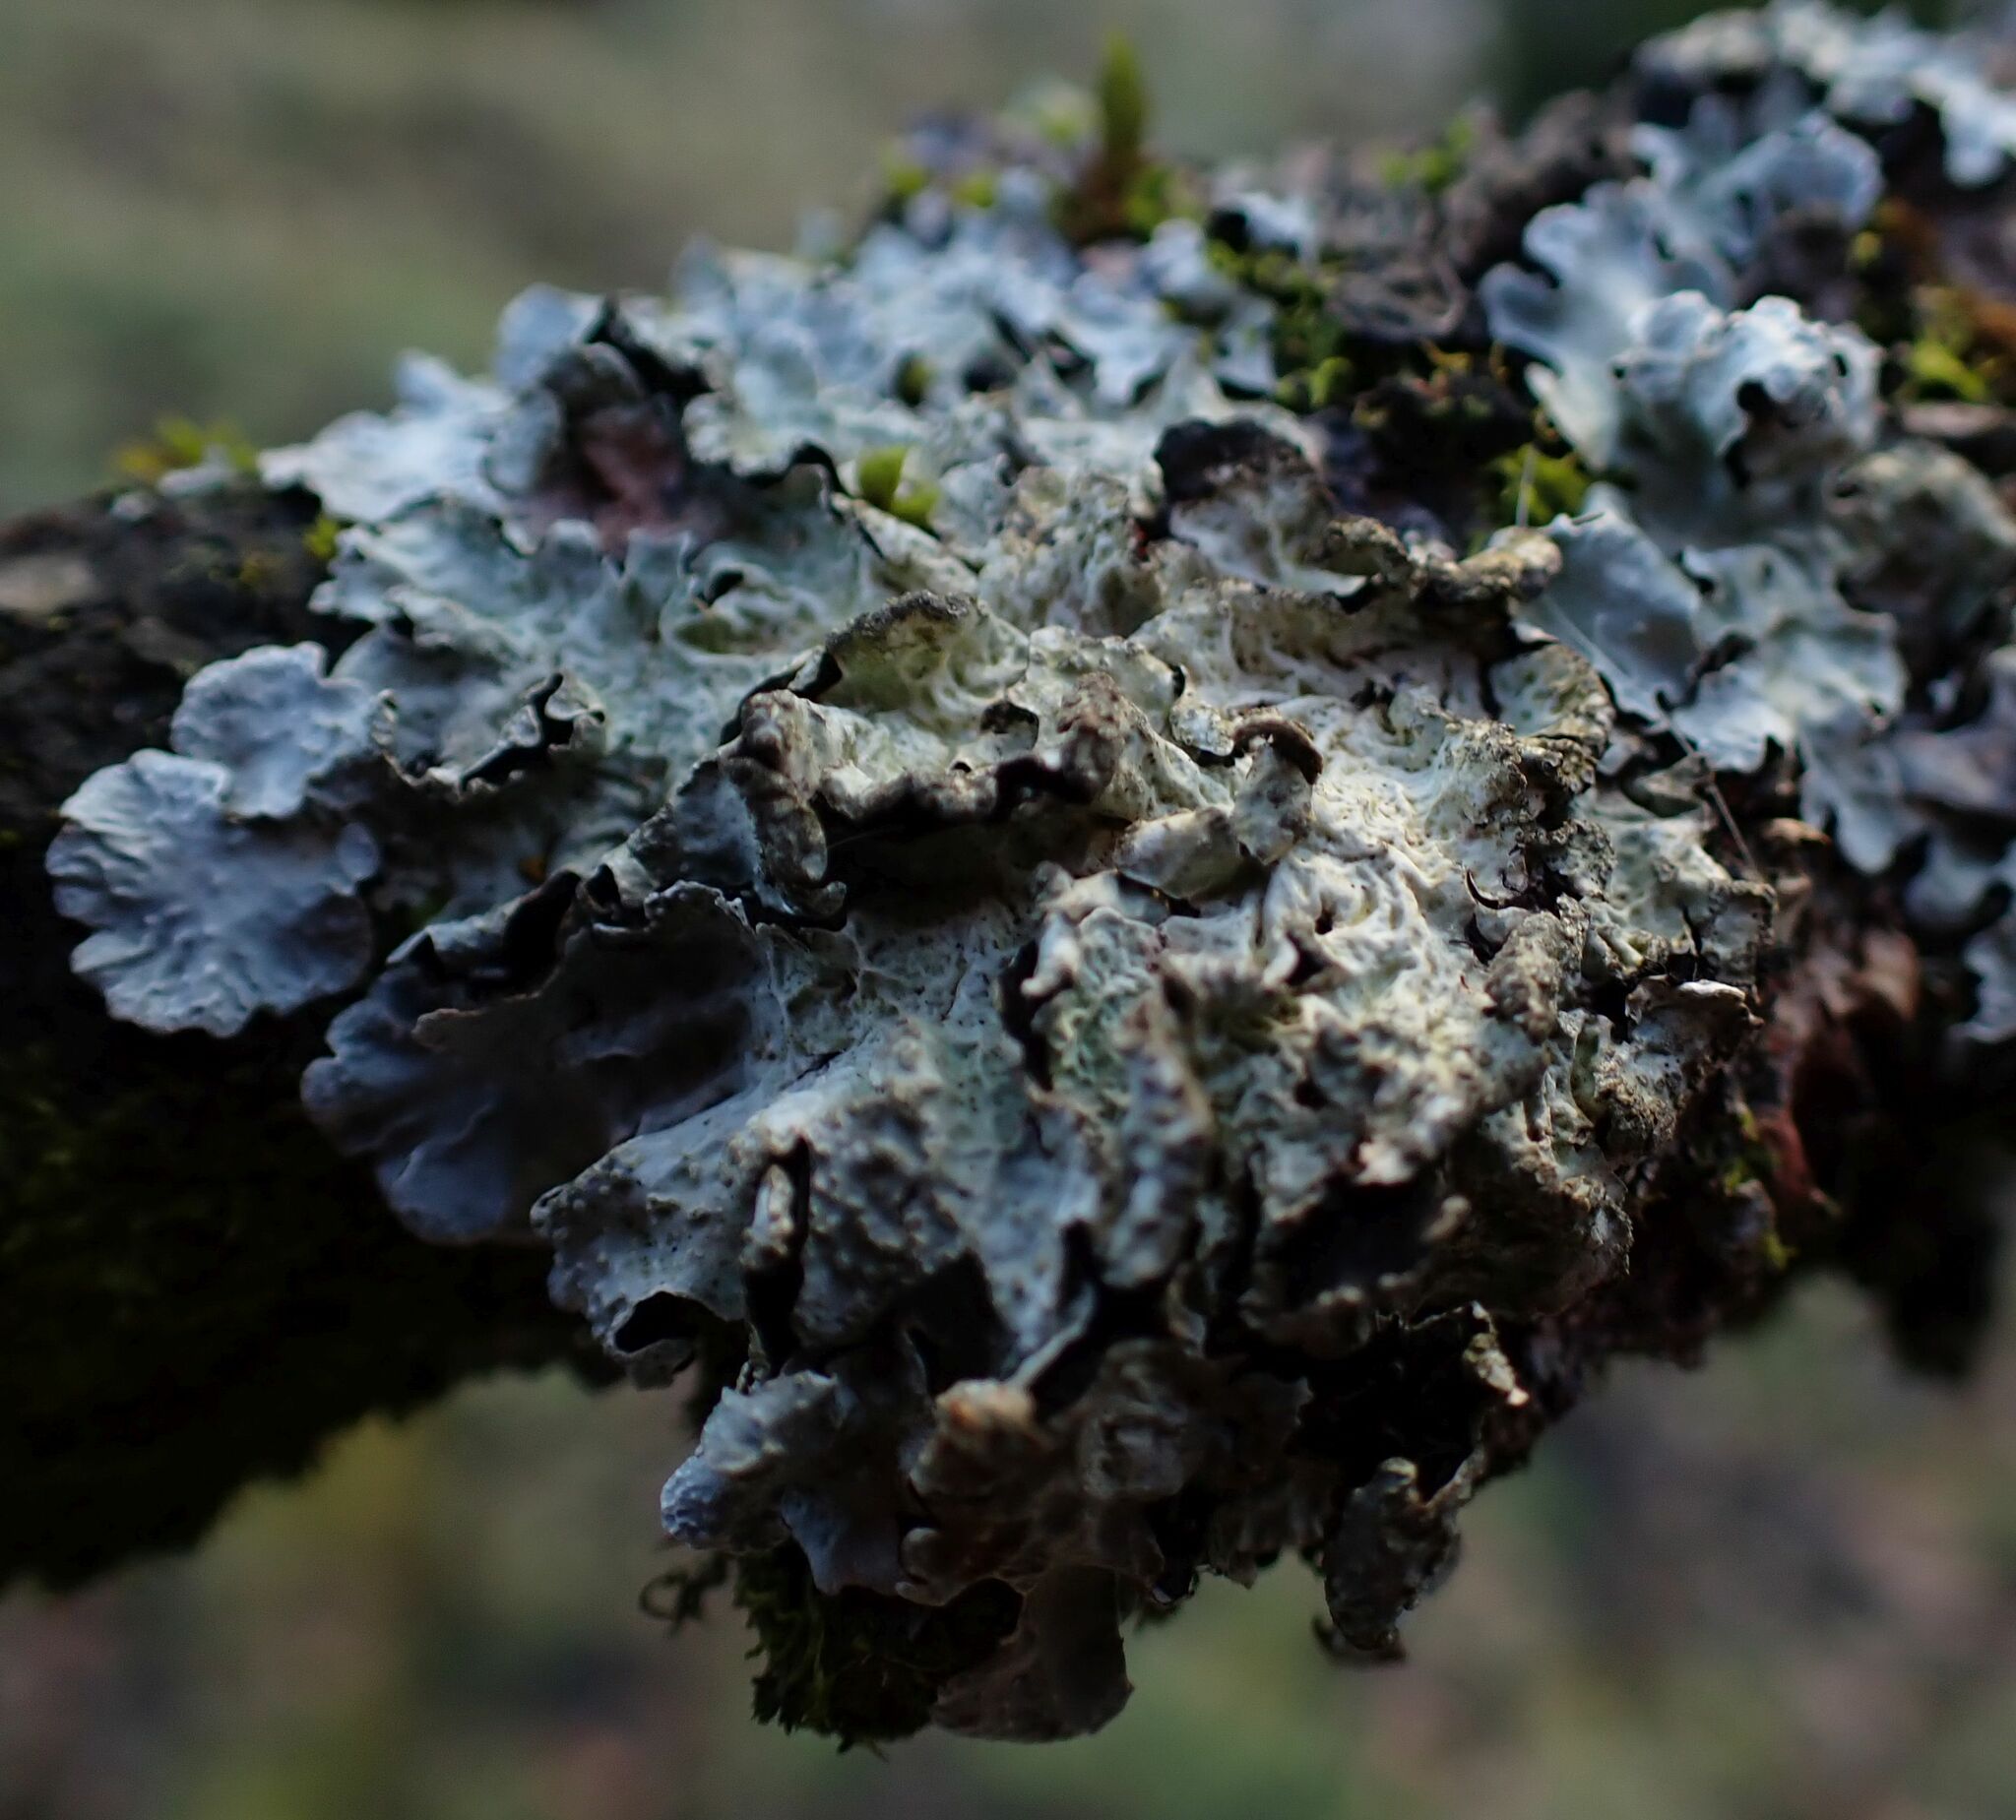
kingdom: Fungi
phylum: Ascomycota
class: Lecanoromycetes
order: Lecanorales
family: Parmeliaceae
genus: Parmelia
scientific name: Parmelia sulcata
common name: Netted shield lichen
